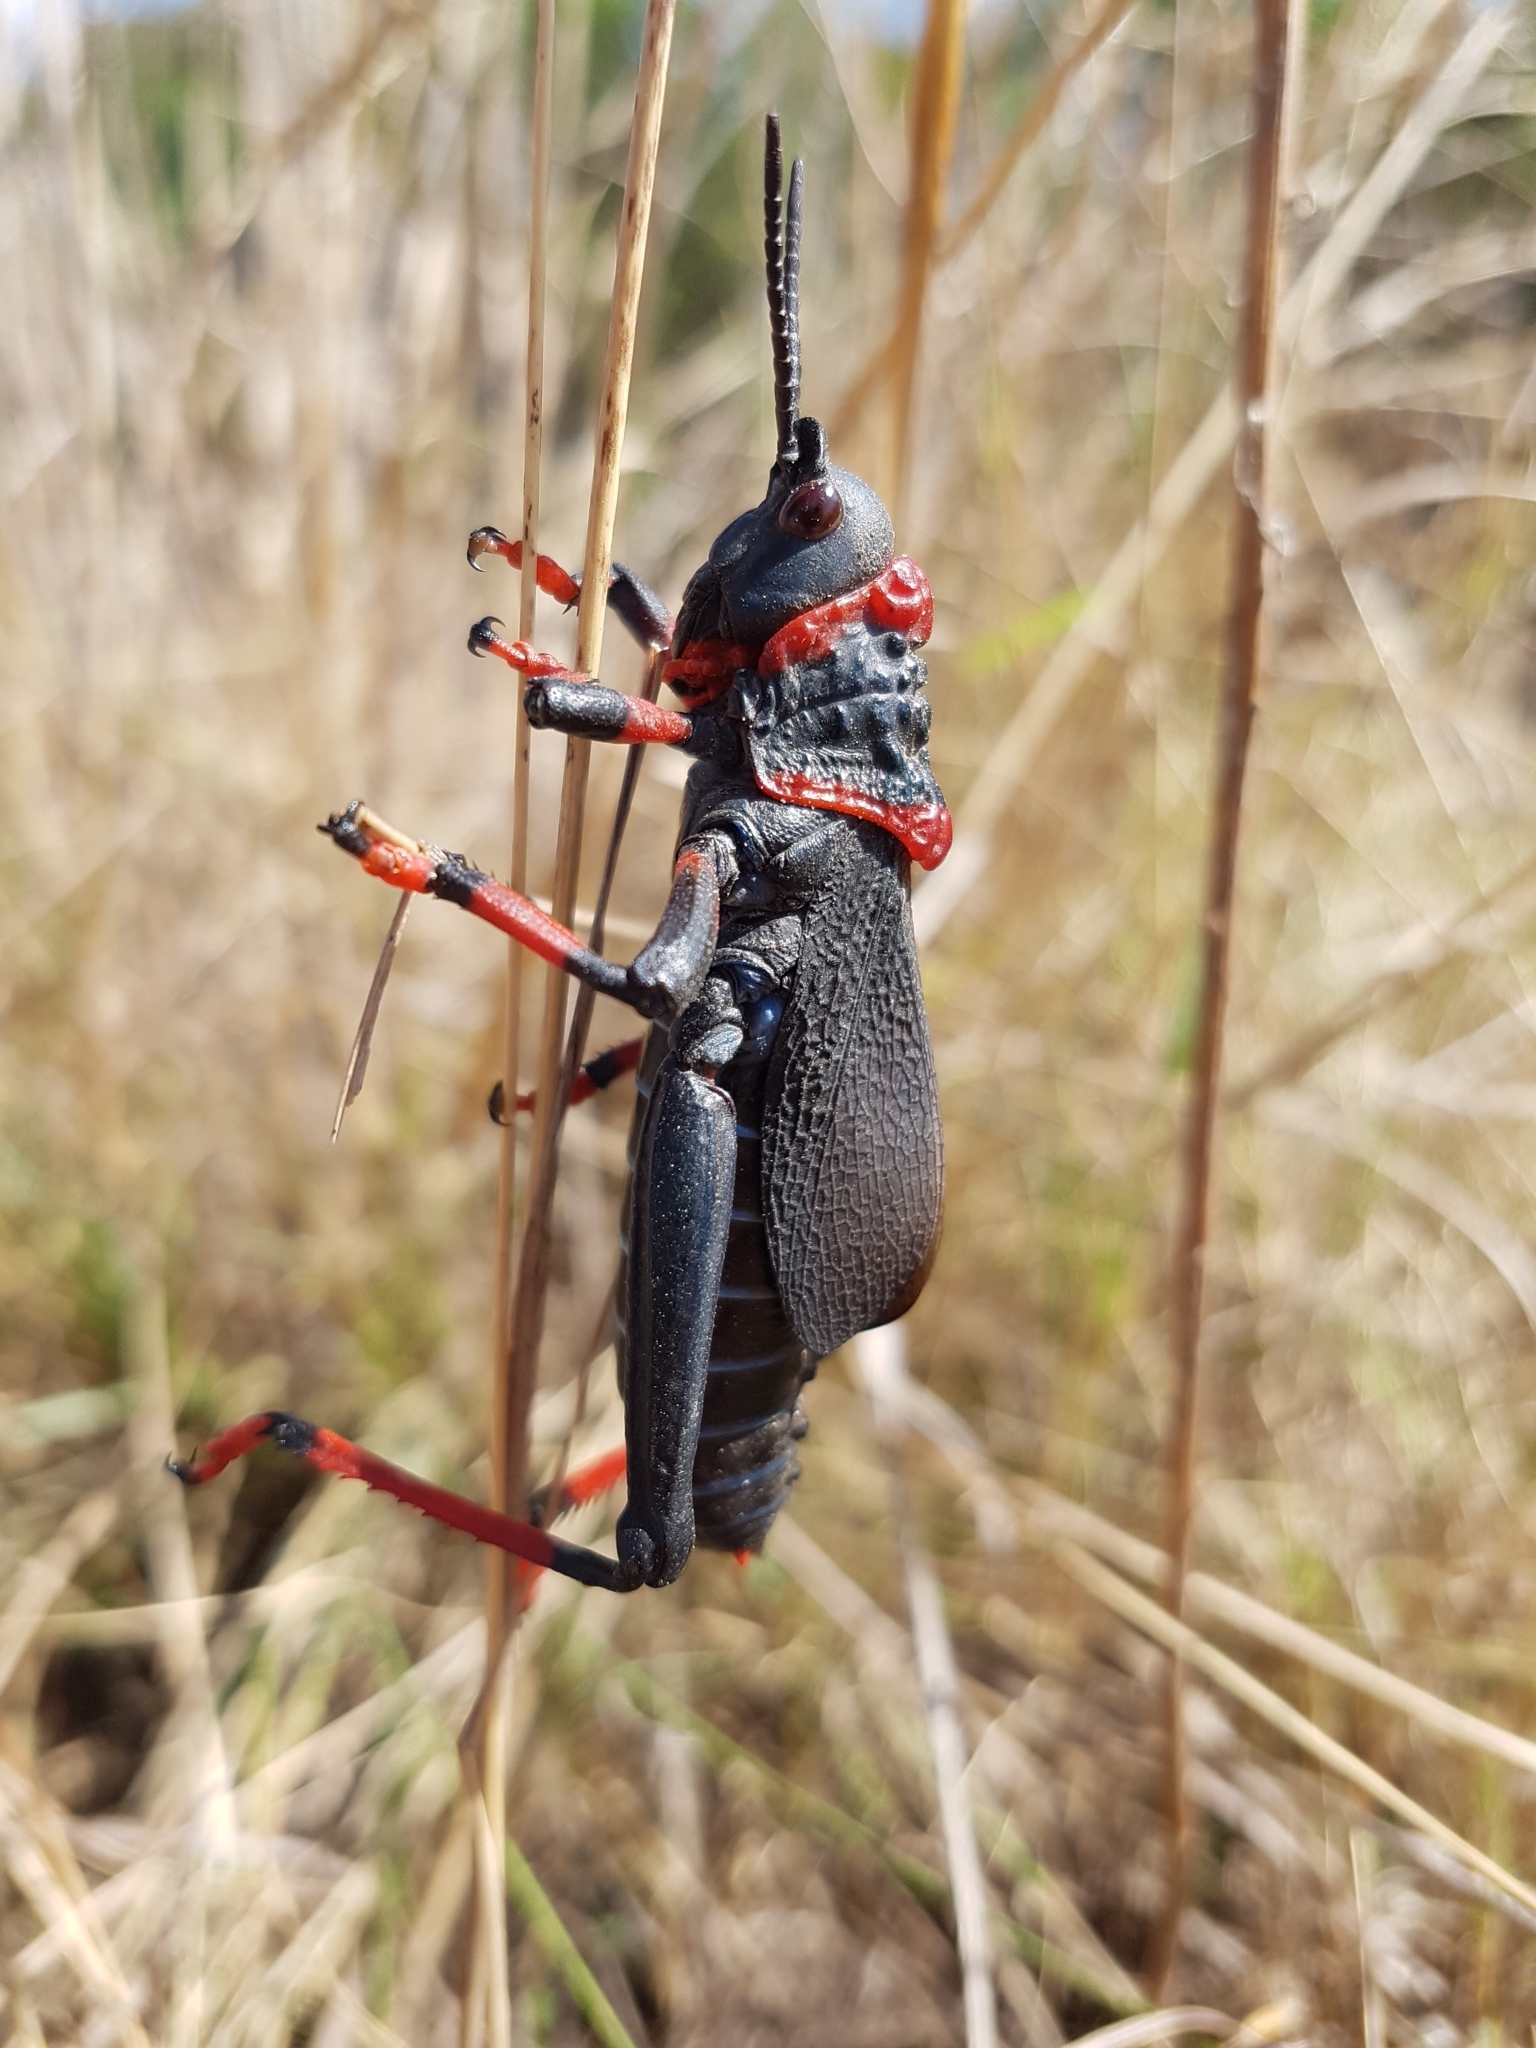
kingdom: Animalia
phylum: Arthropoda
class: Insecta
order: Orthoptera
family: Pyrgomorphidae
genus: Dictyophorus
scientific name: Dictyophorus spumans
